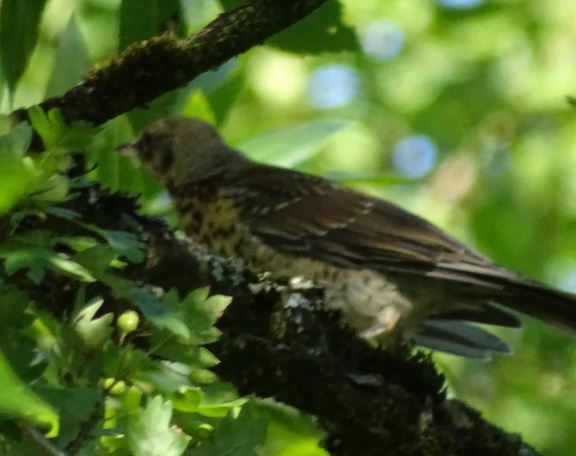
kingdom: Animalia
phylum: Chordata
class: Aves
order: Passeriformes
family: Turdidae
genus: Turdus
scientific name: Turdus pilaris
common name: Fieldfare
